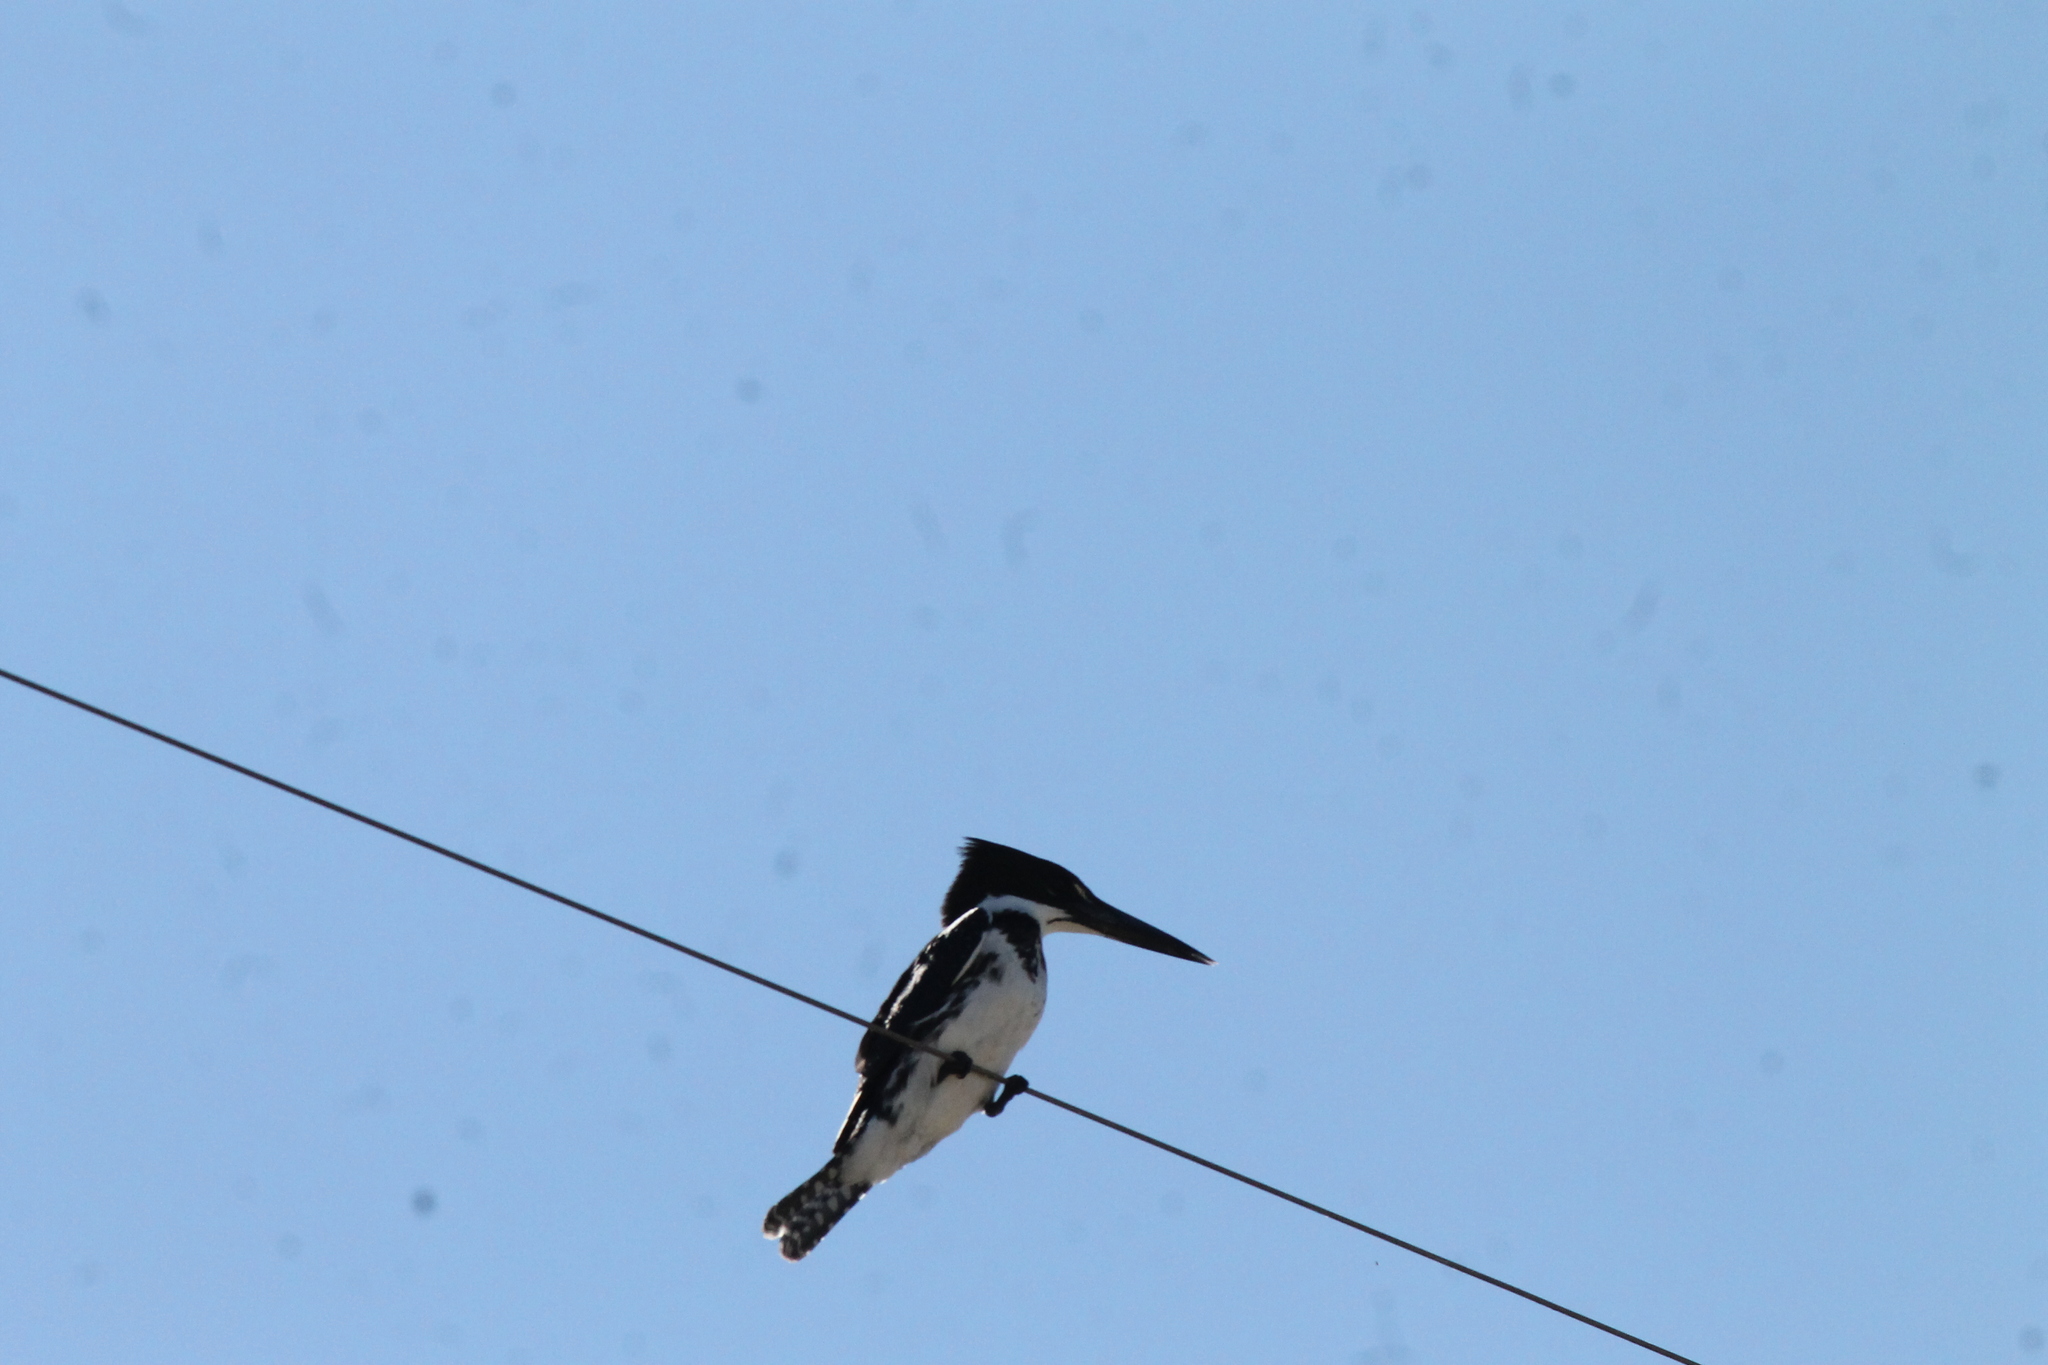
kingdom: Animalia
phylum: Chordata
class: Aves
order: Coraciiformes
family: Alcedinidae
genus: Chloroceryle
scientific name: Chloroceryle amazona
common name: Amazon kingfisher
